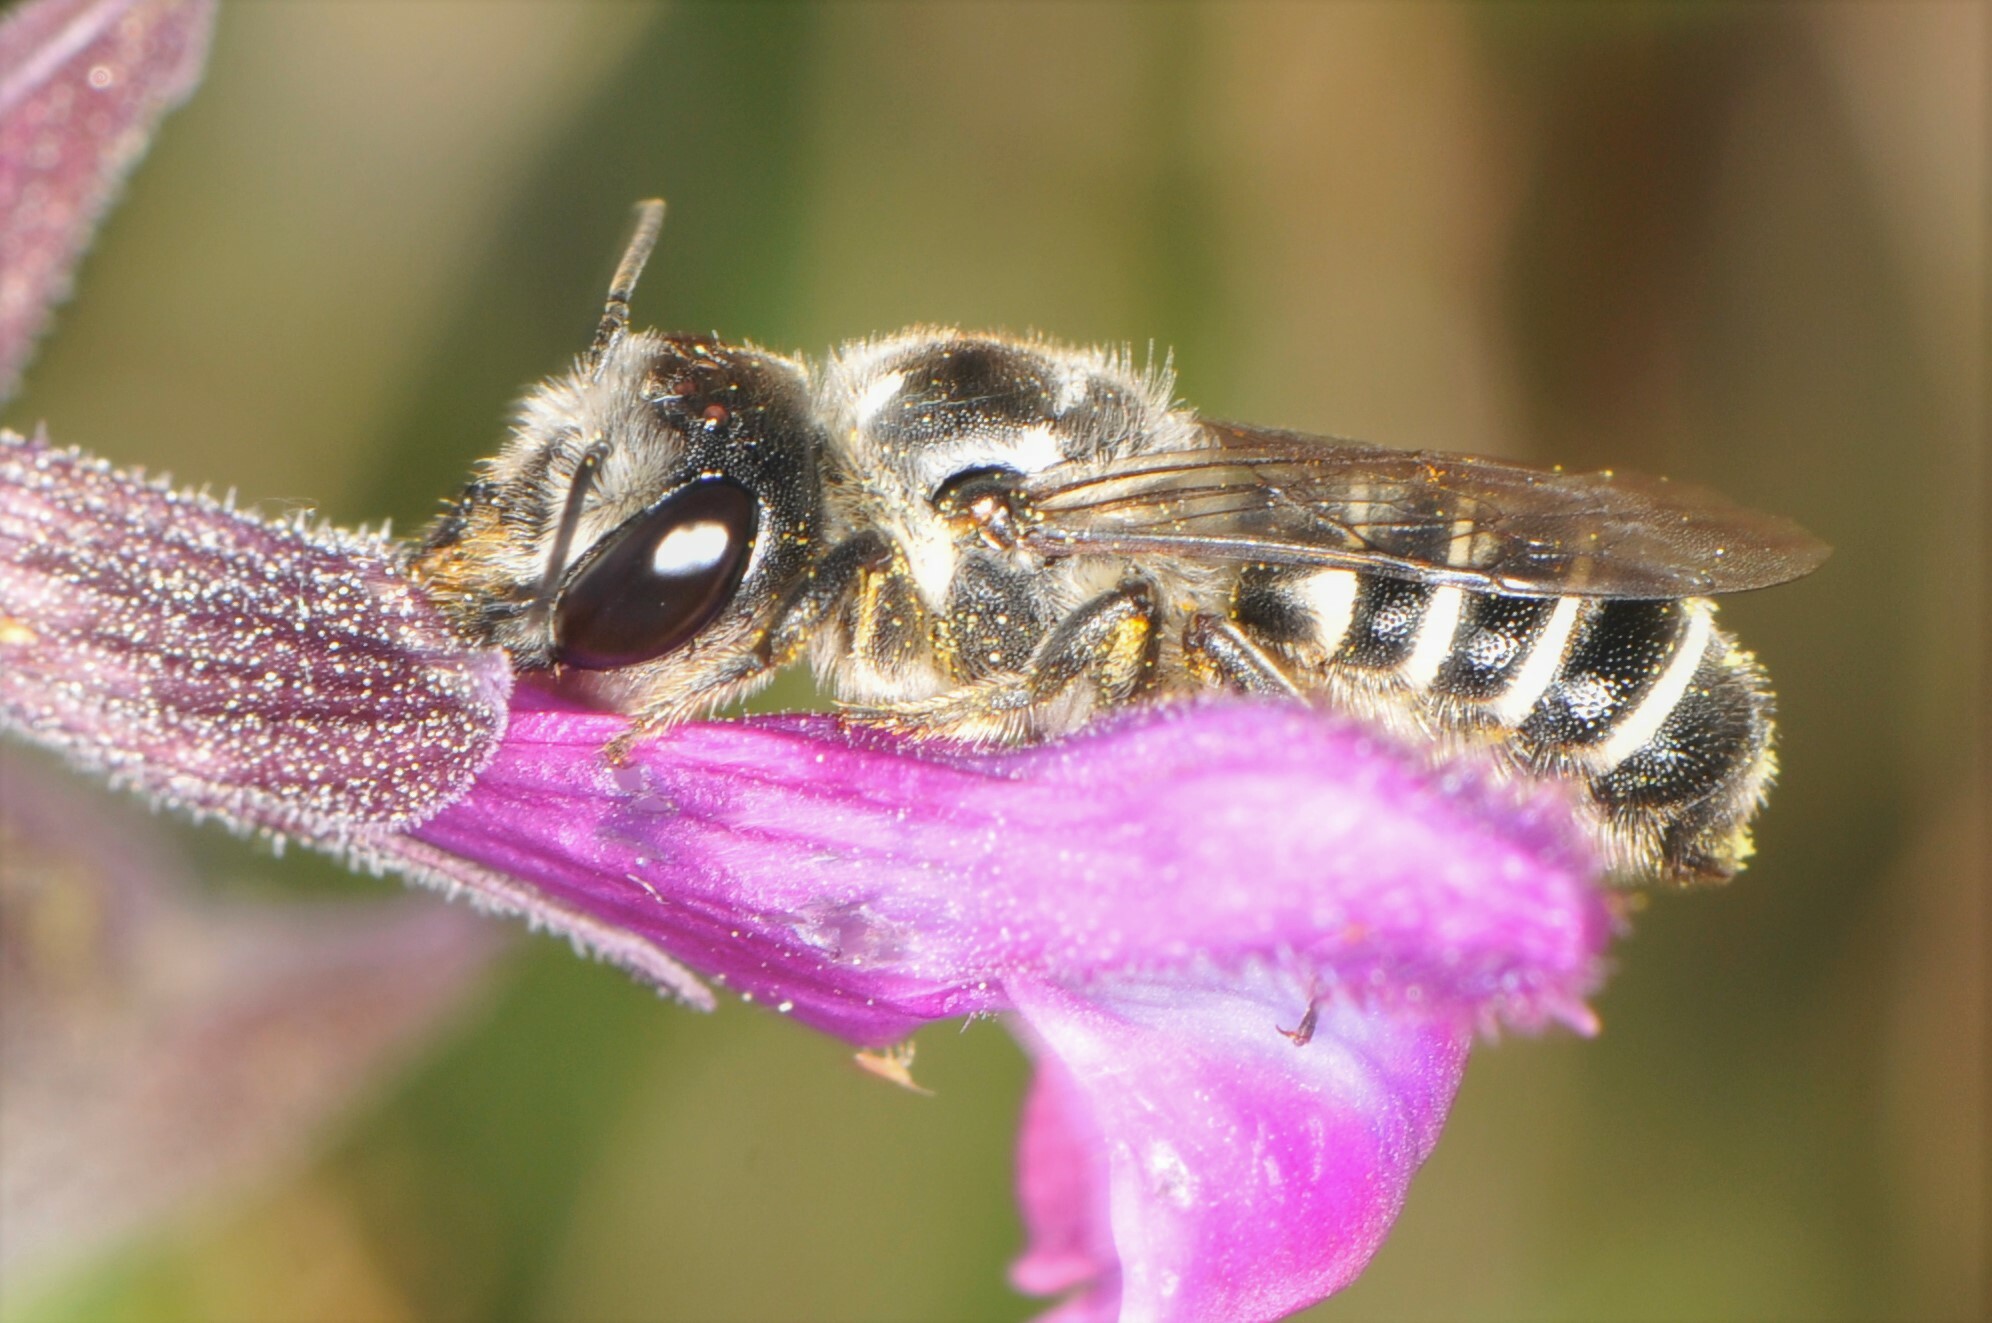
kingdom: Animalia
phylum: Arthropoda
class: Insecta
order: Hymenoptera
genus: Chelostomoides
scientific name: Chelostomoides
